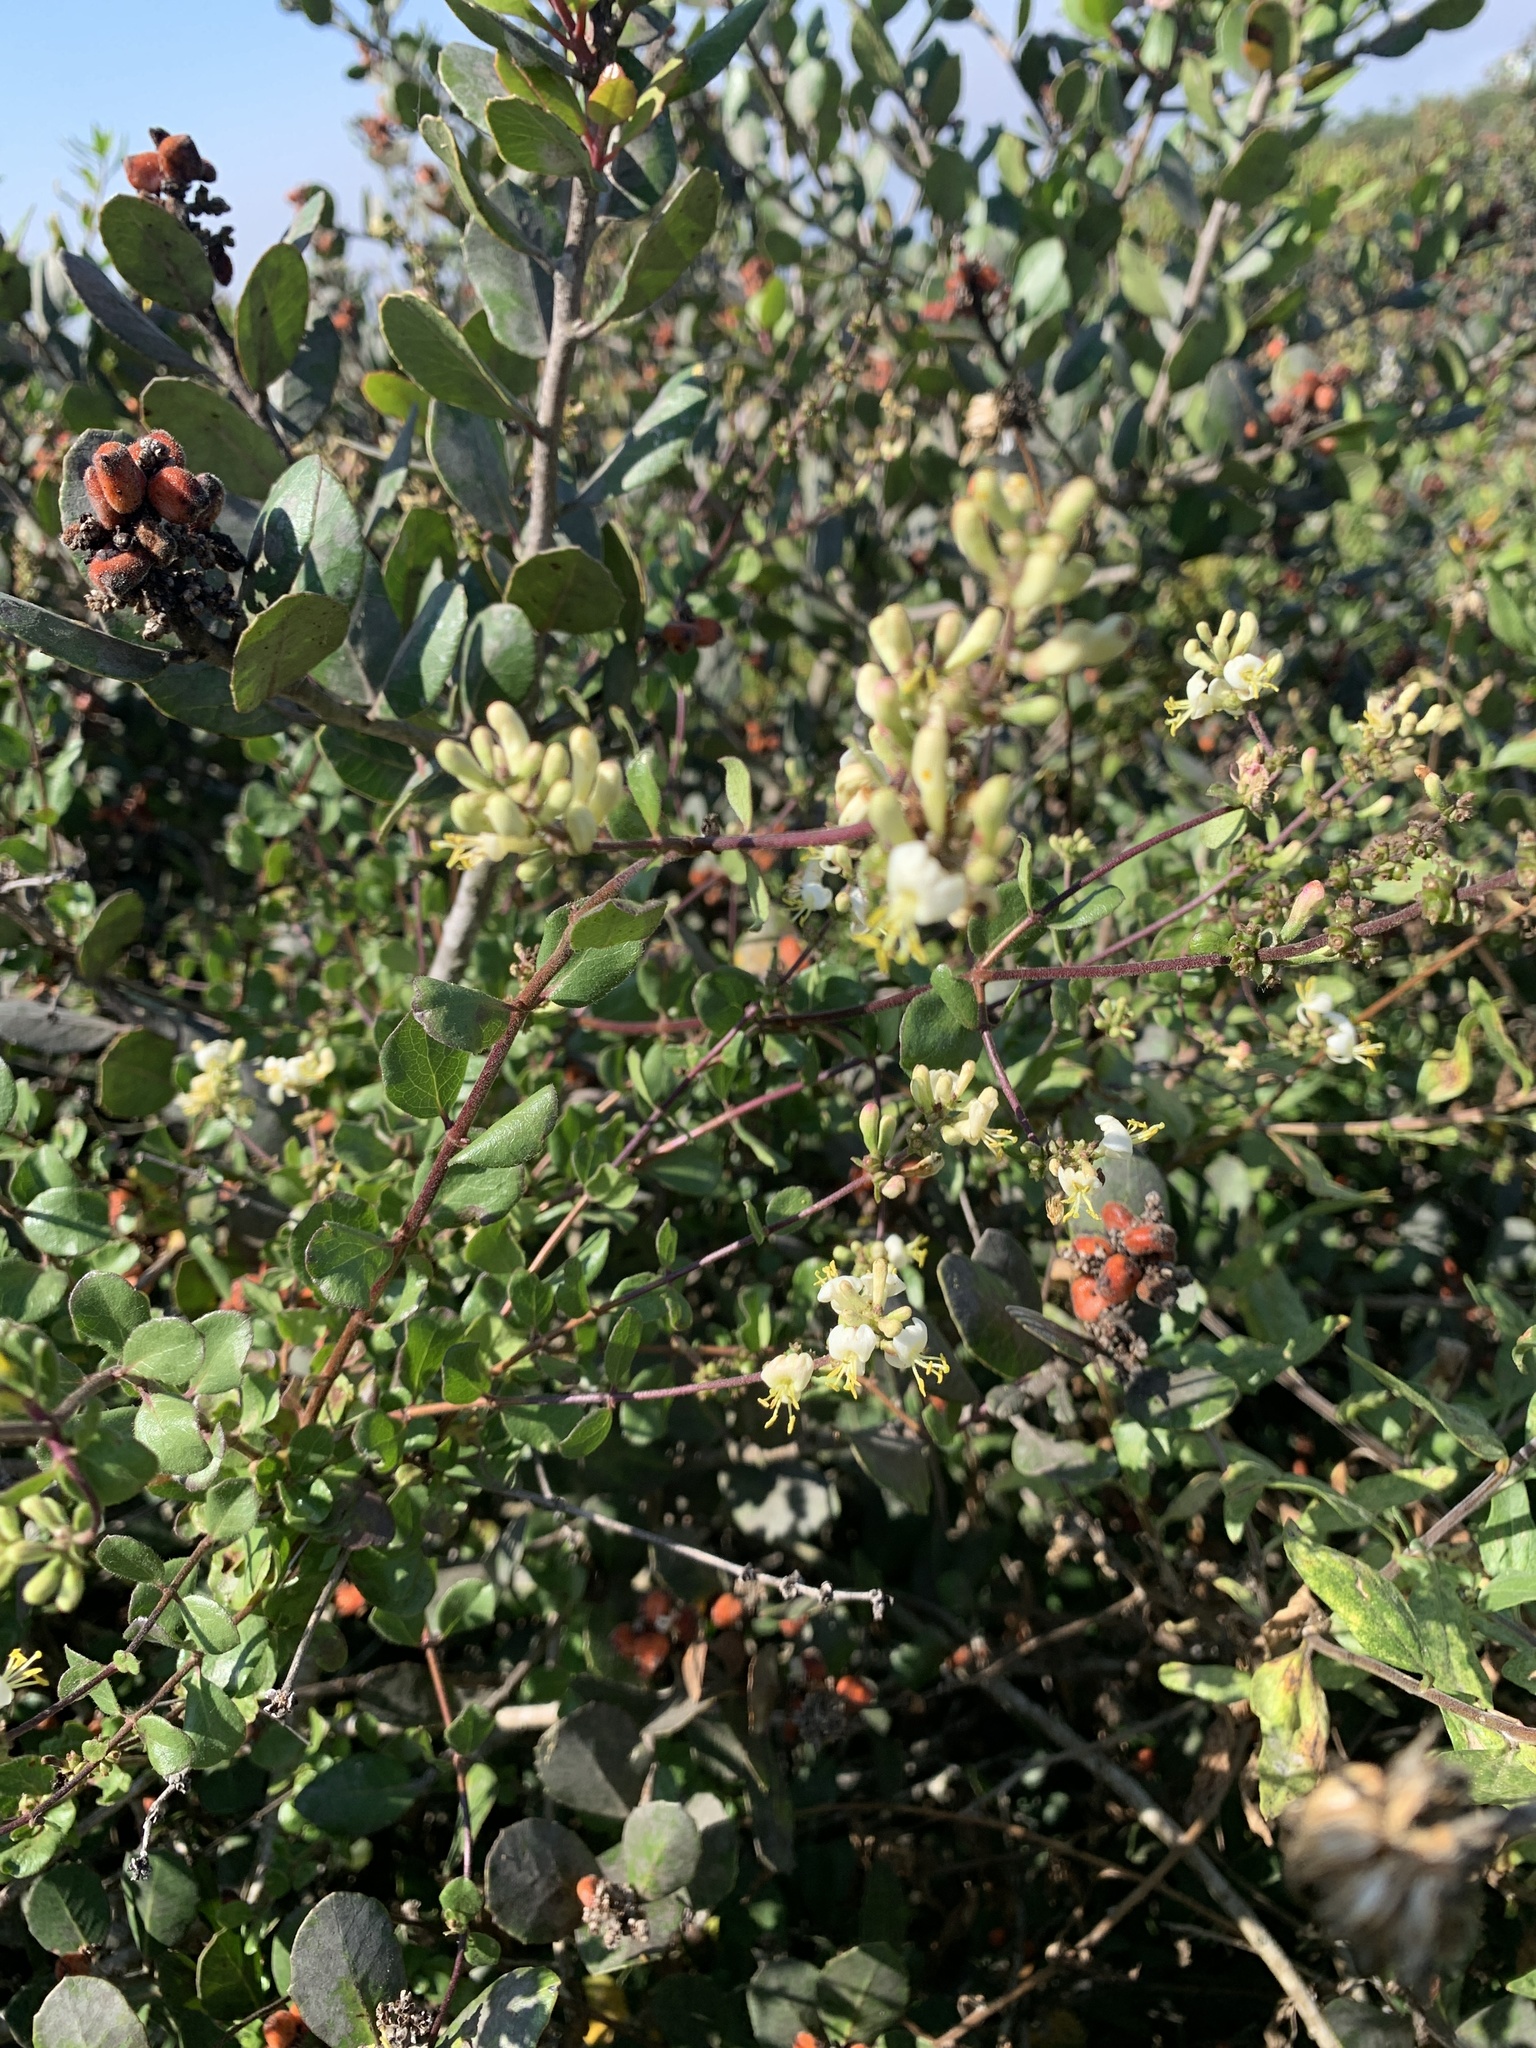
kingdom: Plantae
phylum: Tracheophyta
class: Magnoliopsida
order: Dipsacales
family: Caprifoliaceae
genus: Lonicera
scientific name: Lonicera subspicata
